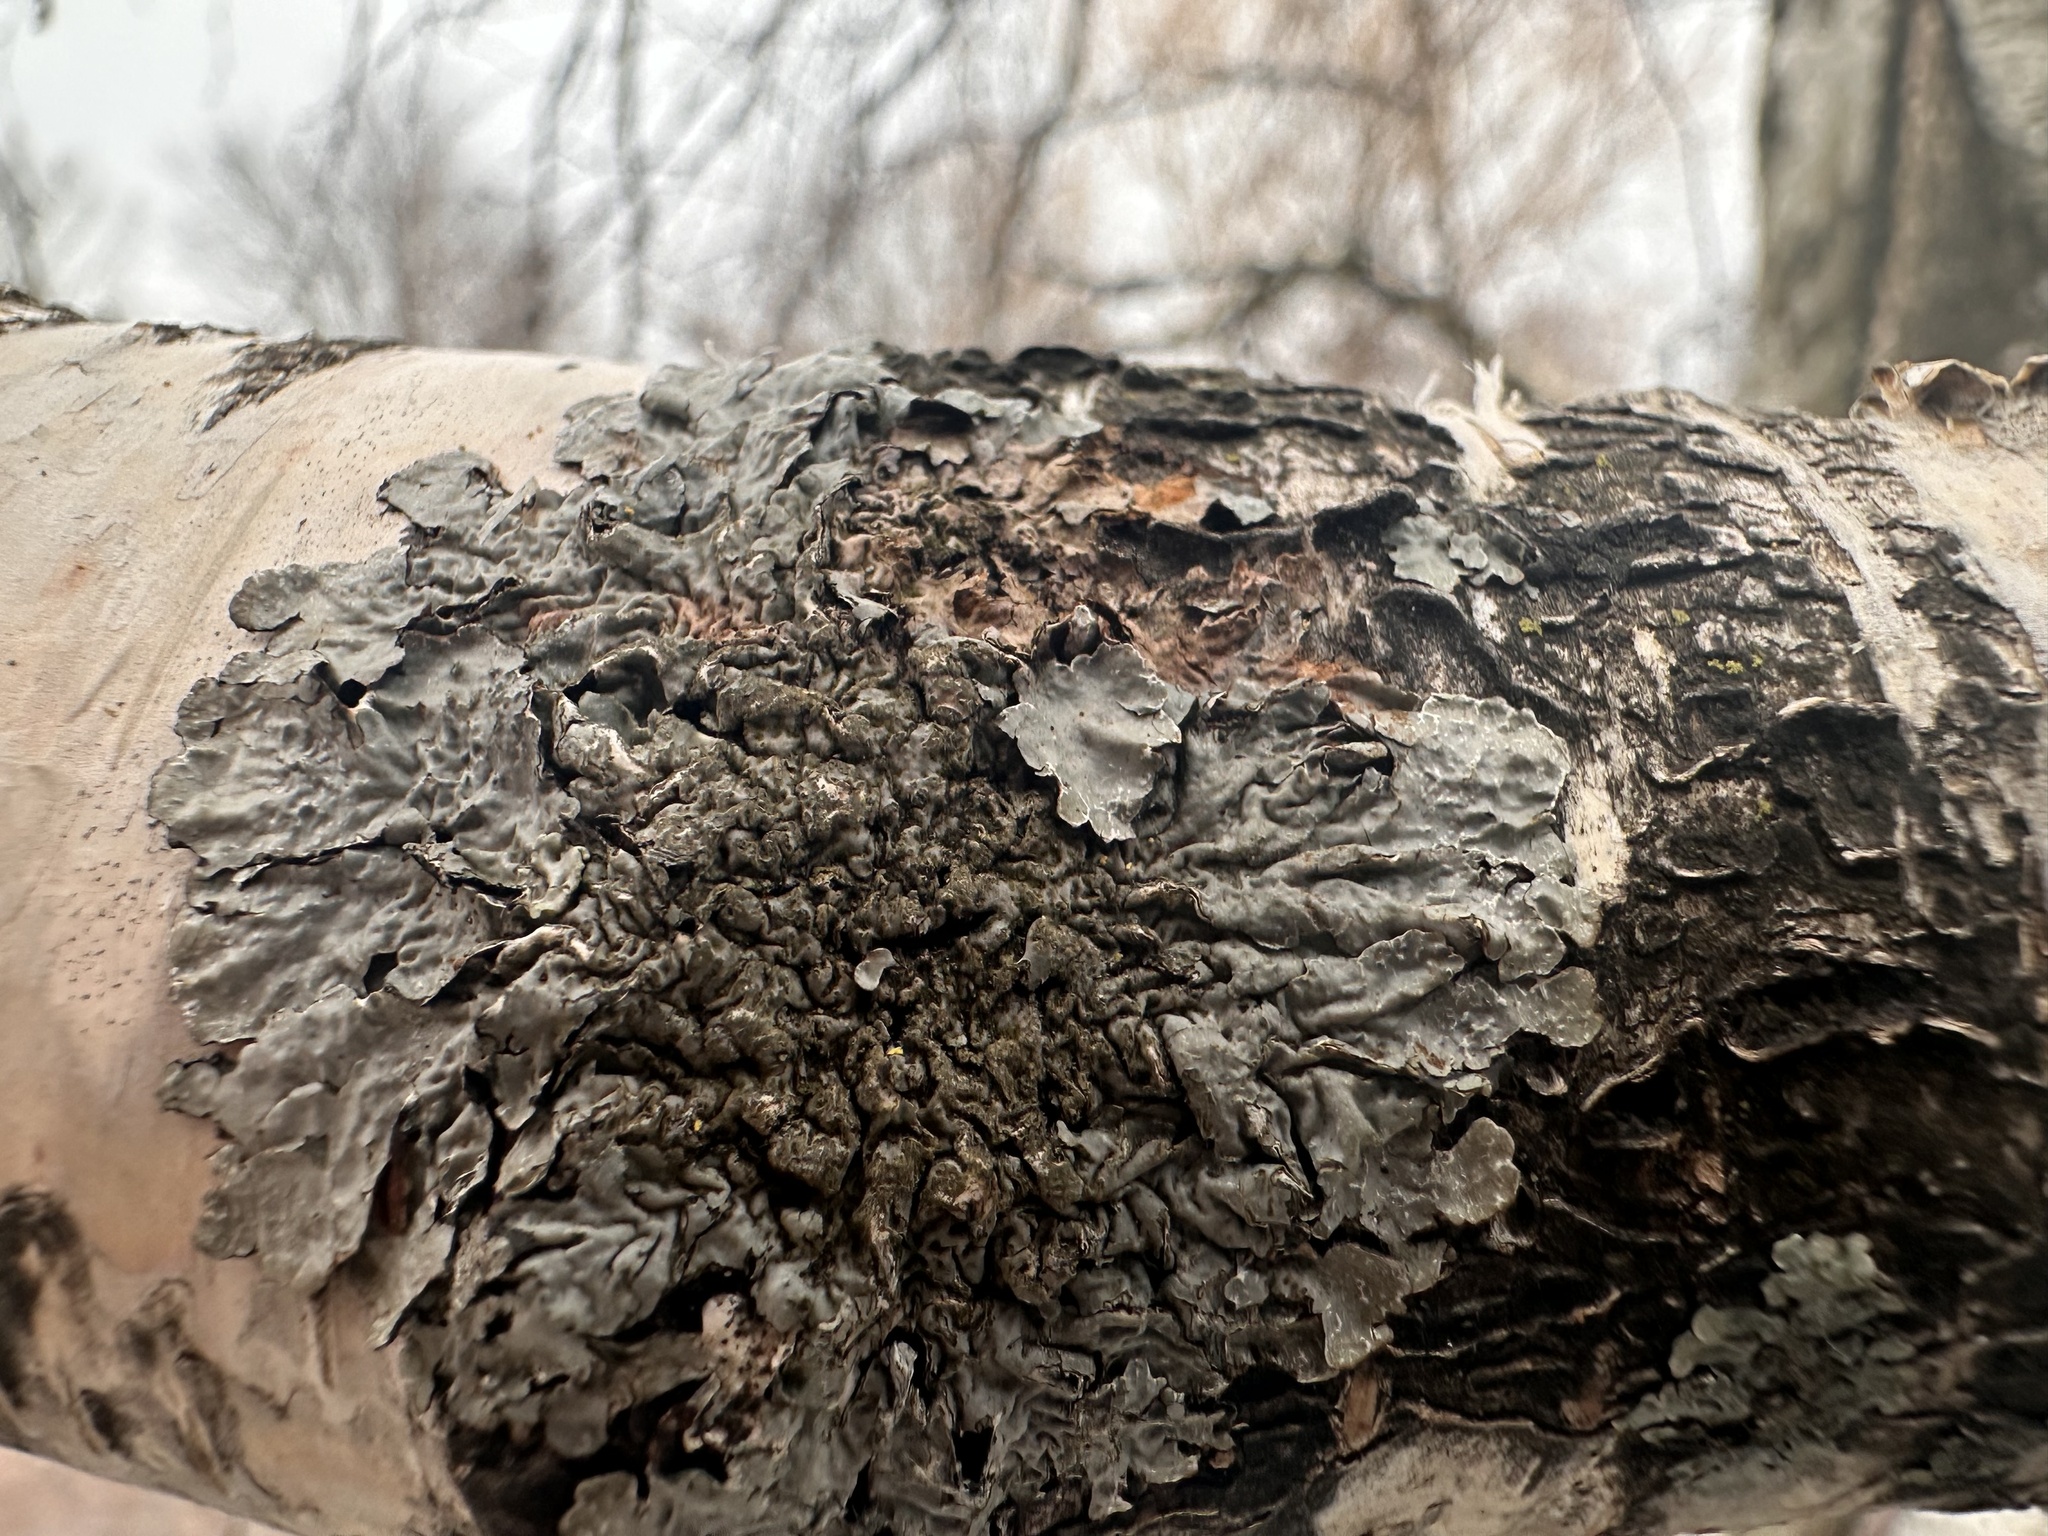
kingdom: Fungi
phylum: Ascomycota
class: Lecanoromycetes
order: Lecanorales
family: Parmeliaceae
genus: Parmelia
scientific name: Parmelia sulcata
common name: Netted shield lichen
